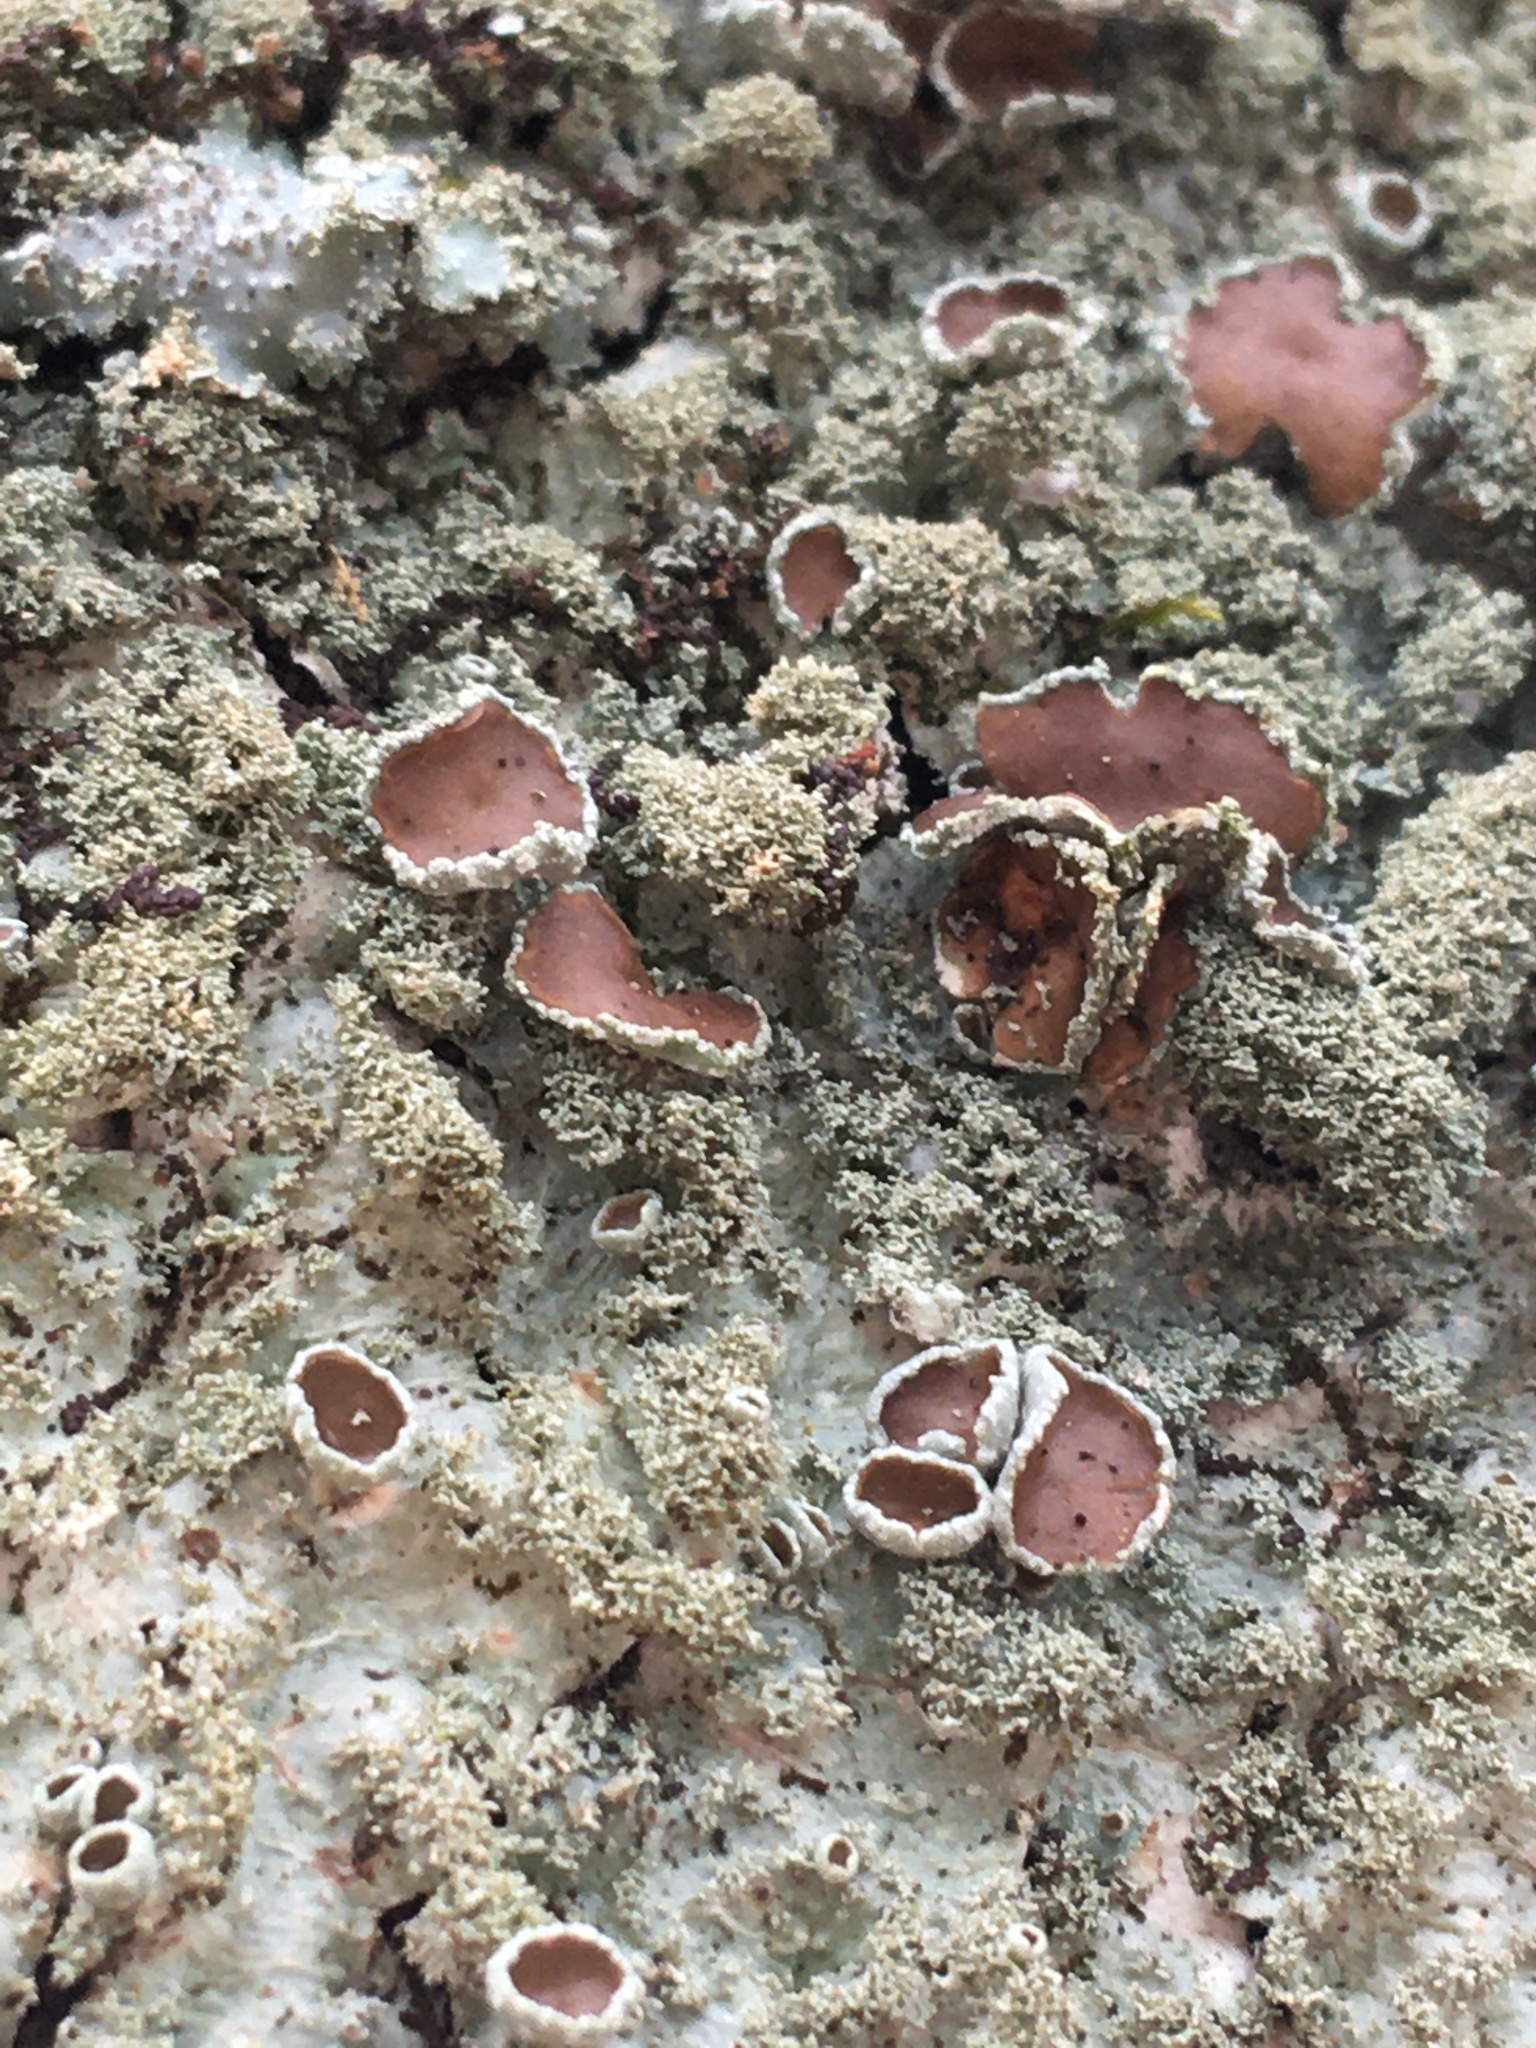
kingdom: Fungi
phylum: Ascomycota
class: Lecanoromycetes
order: Lecanorales
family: Parmeliaceae
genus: Parmelia
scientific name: Parmelia squarrosa
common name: Bottle brush shield lichen
